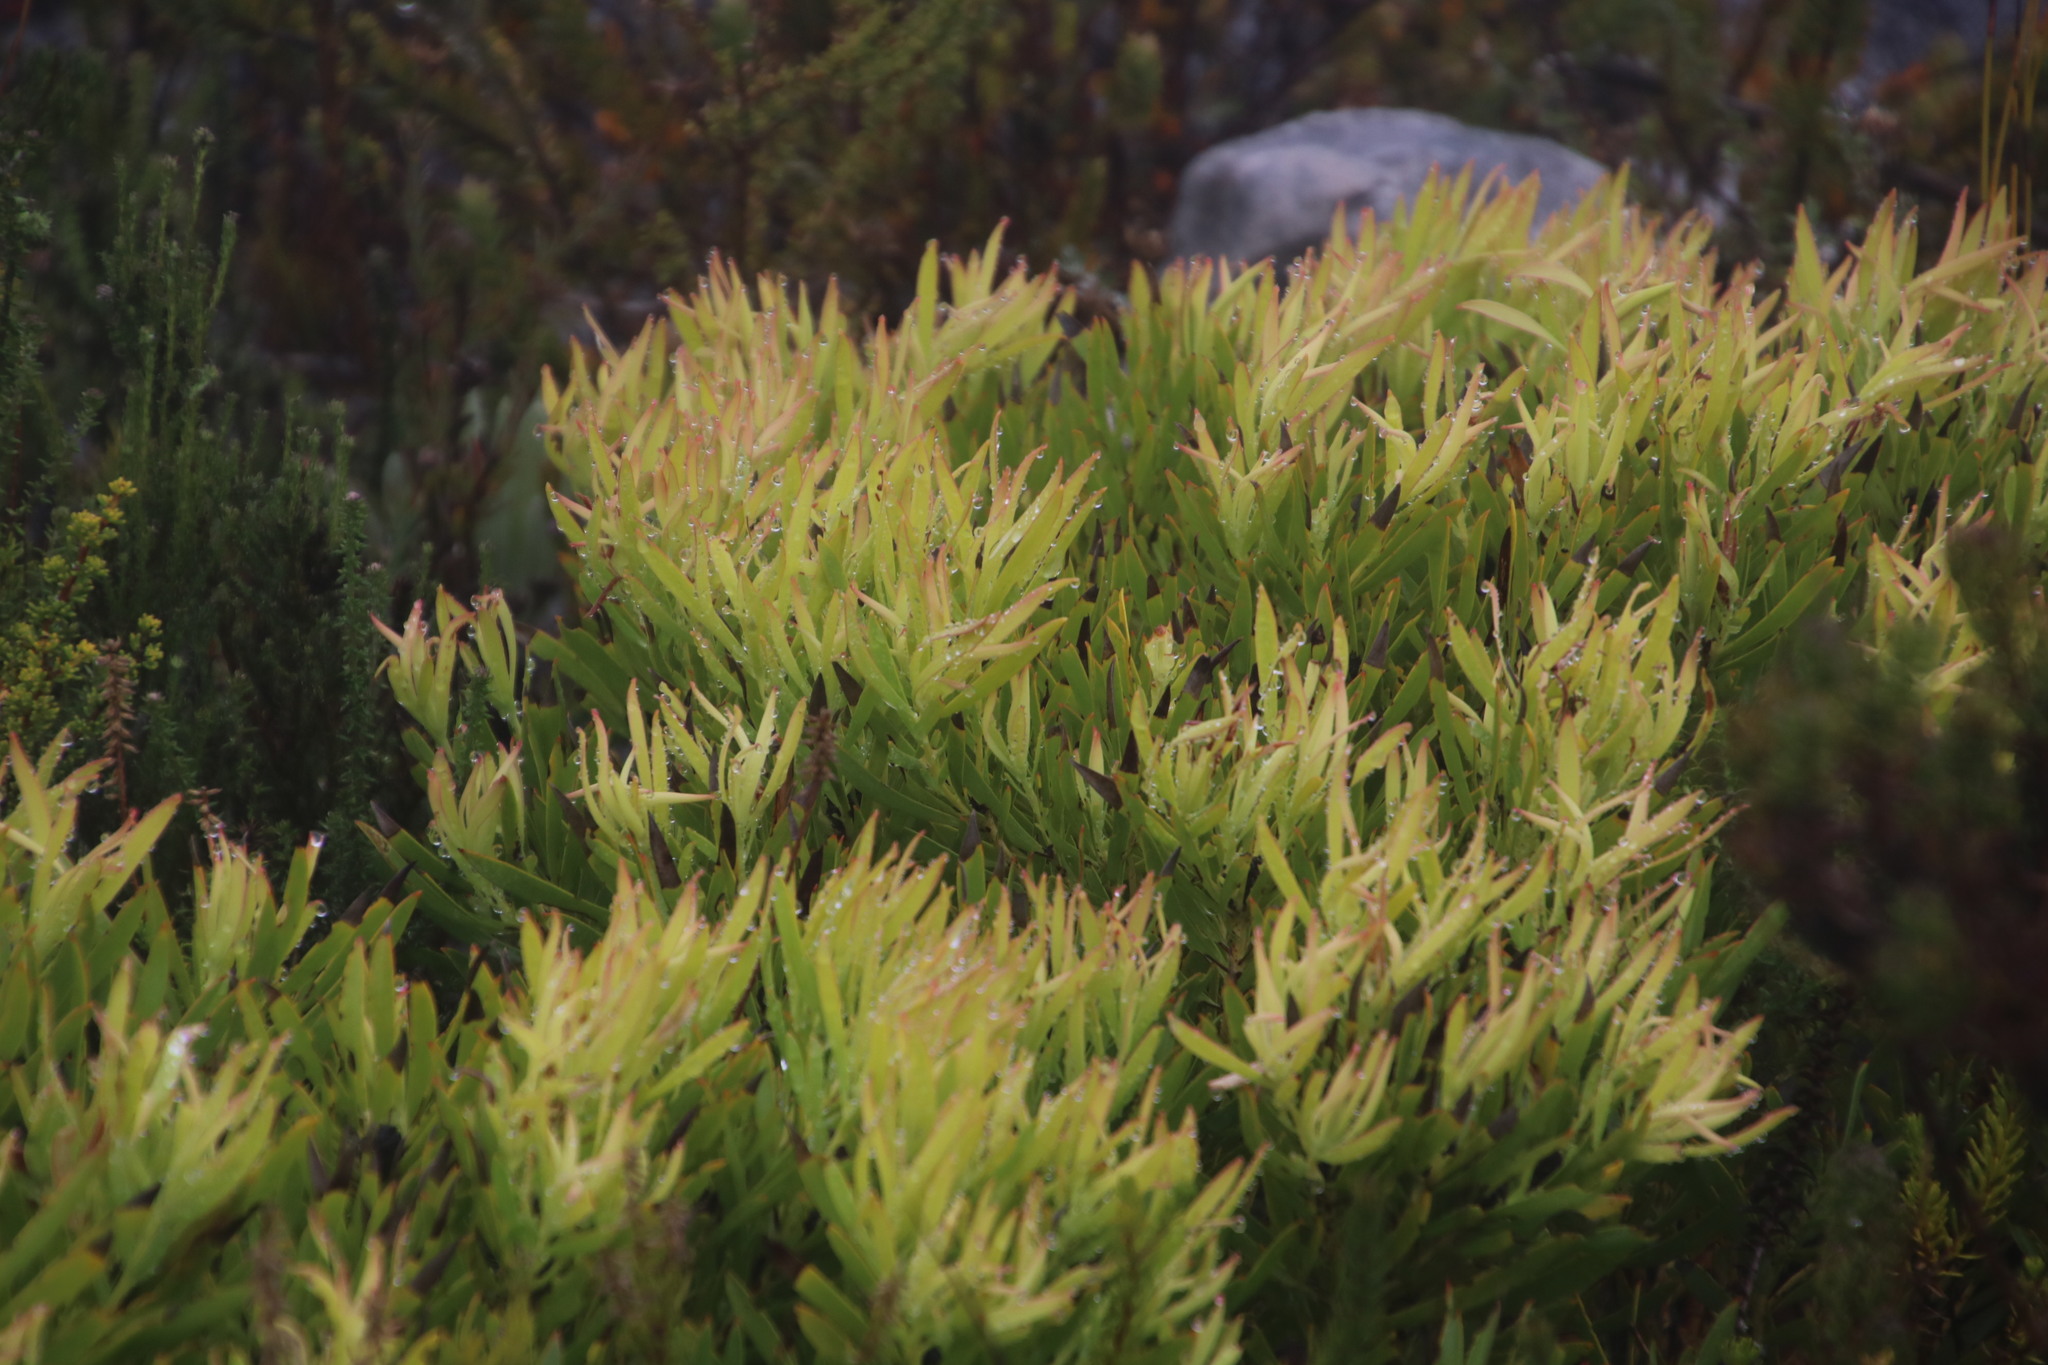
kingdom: Plantae
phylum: Tracheophyta
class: Magnoliopsida
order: Proteales
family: Proteaceae
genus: Leucadendron
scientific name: Leucadendron salignum
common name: Common sunshine conebush
